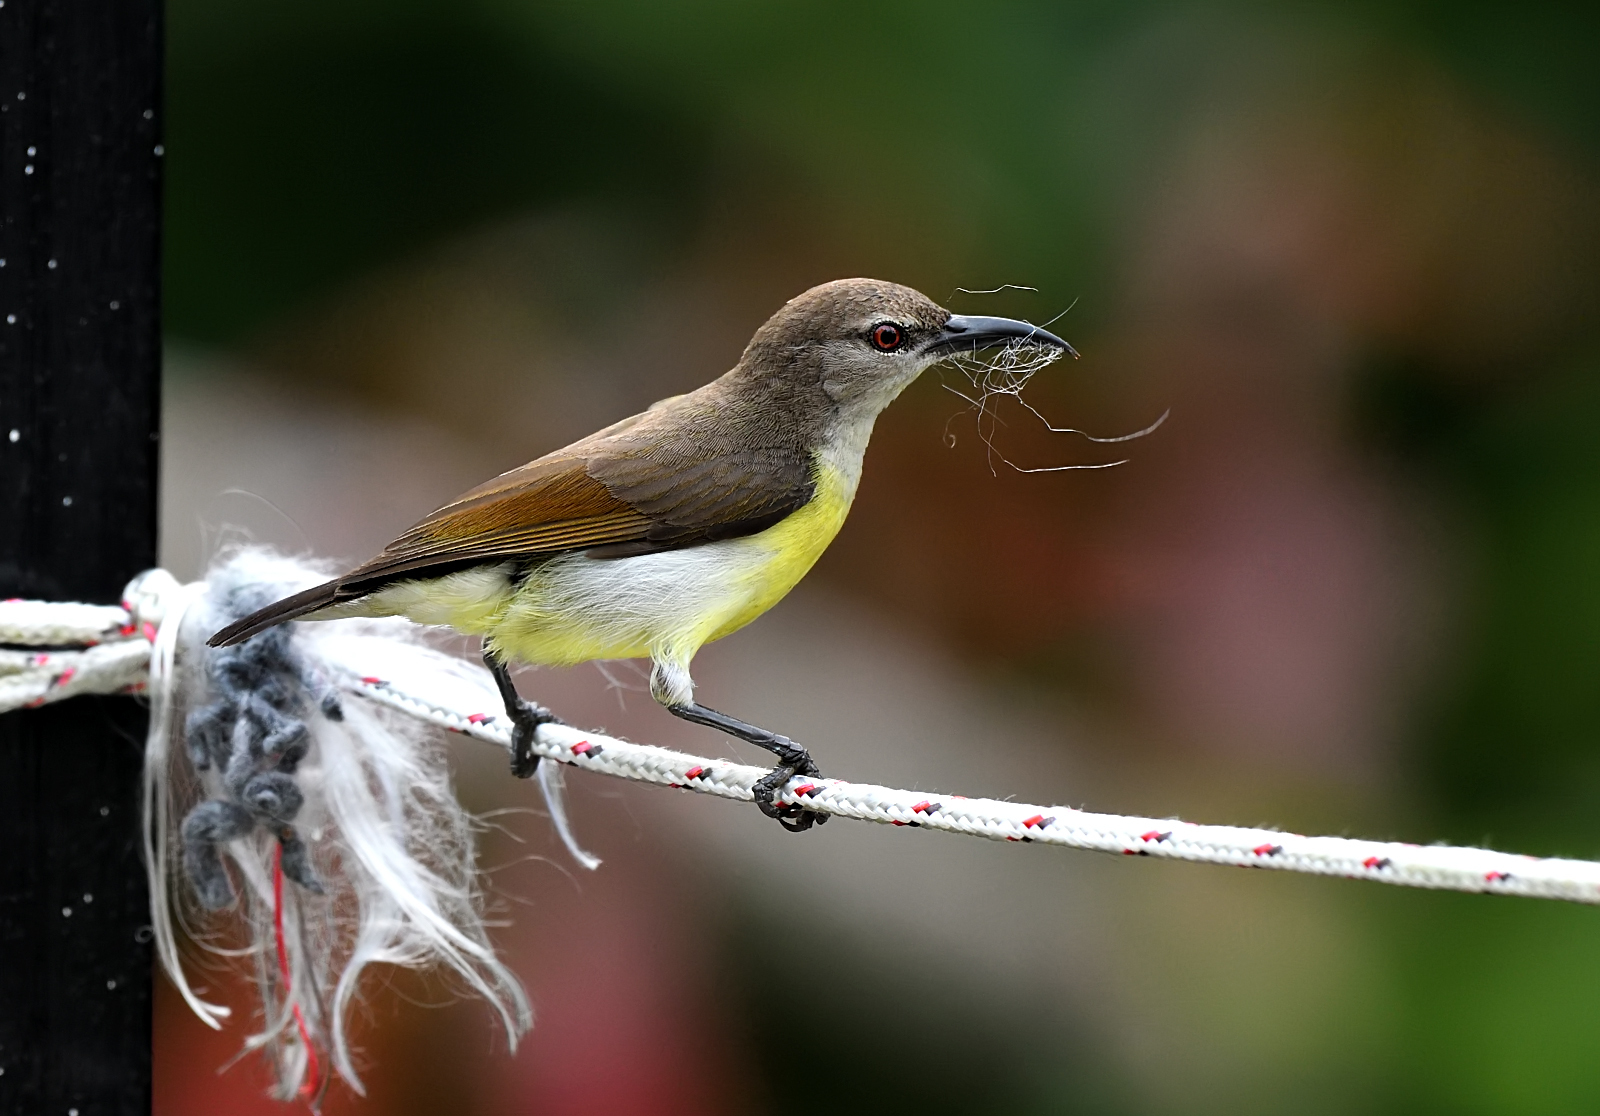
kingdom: Animalia
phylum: Chordata
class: Aves
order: Passeriformes
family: Nectariniidae
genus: Leptocoma
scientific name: Leptocoma zeylonica
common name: Purple-rumped sunbird
